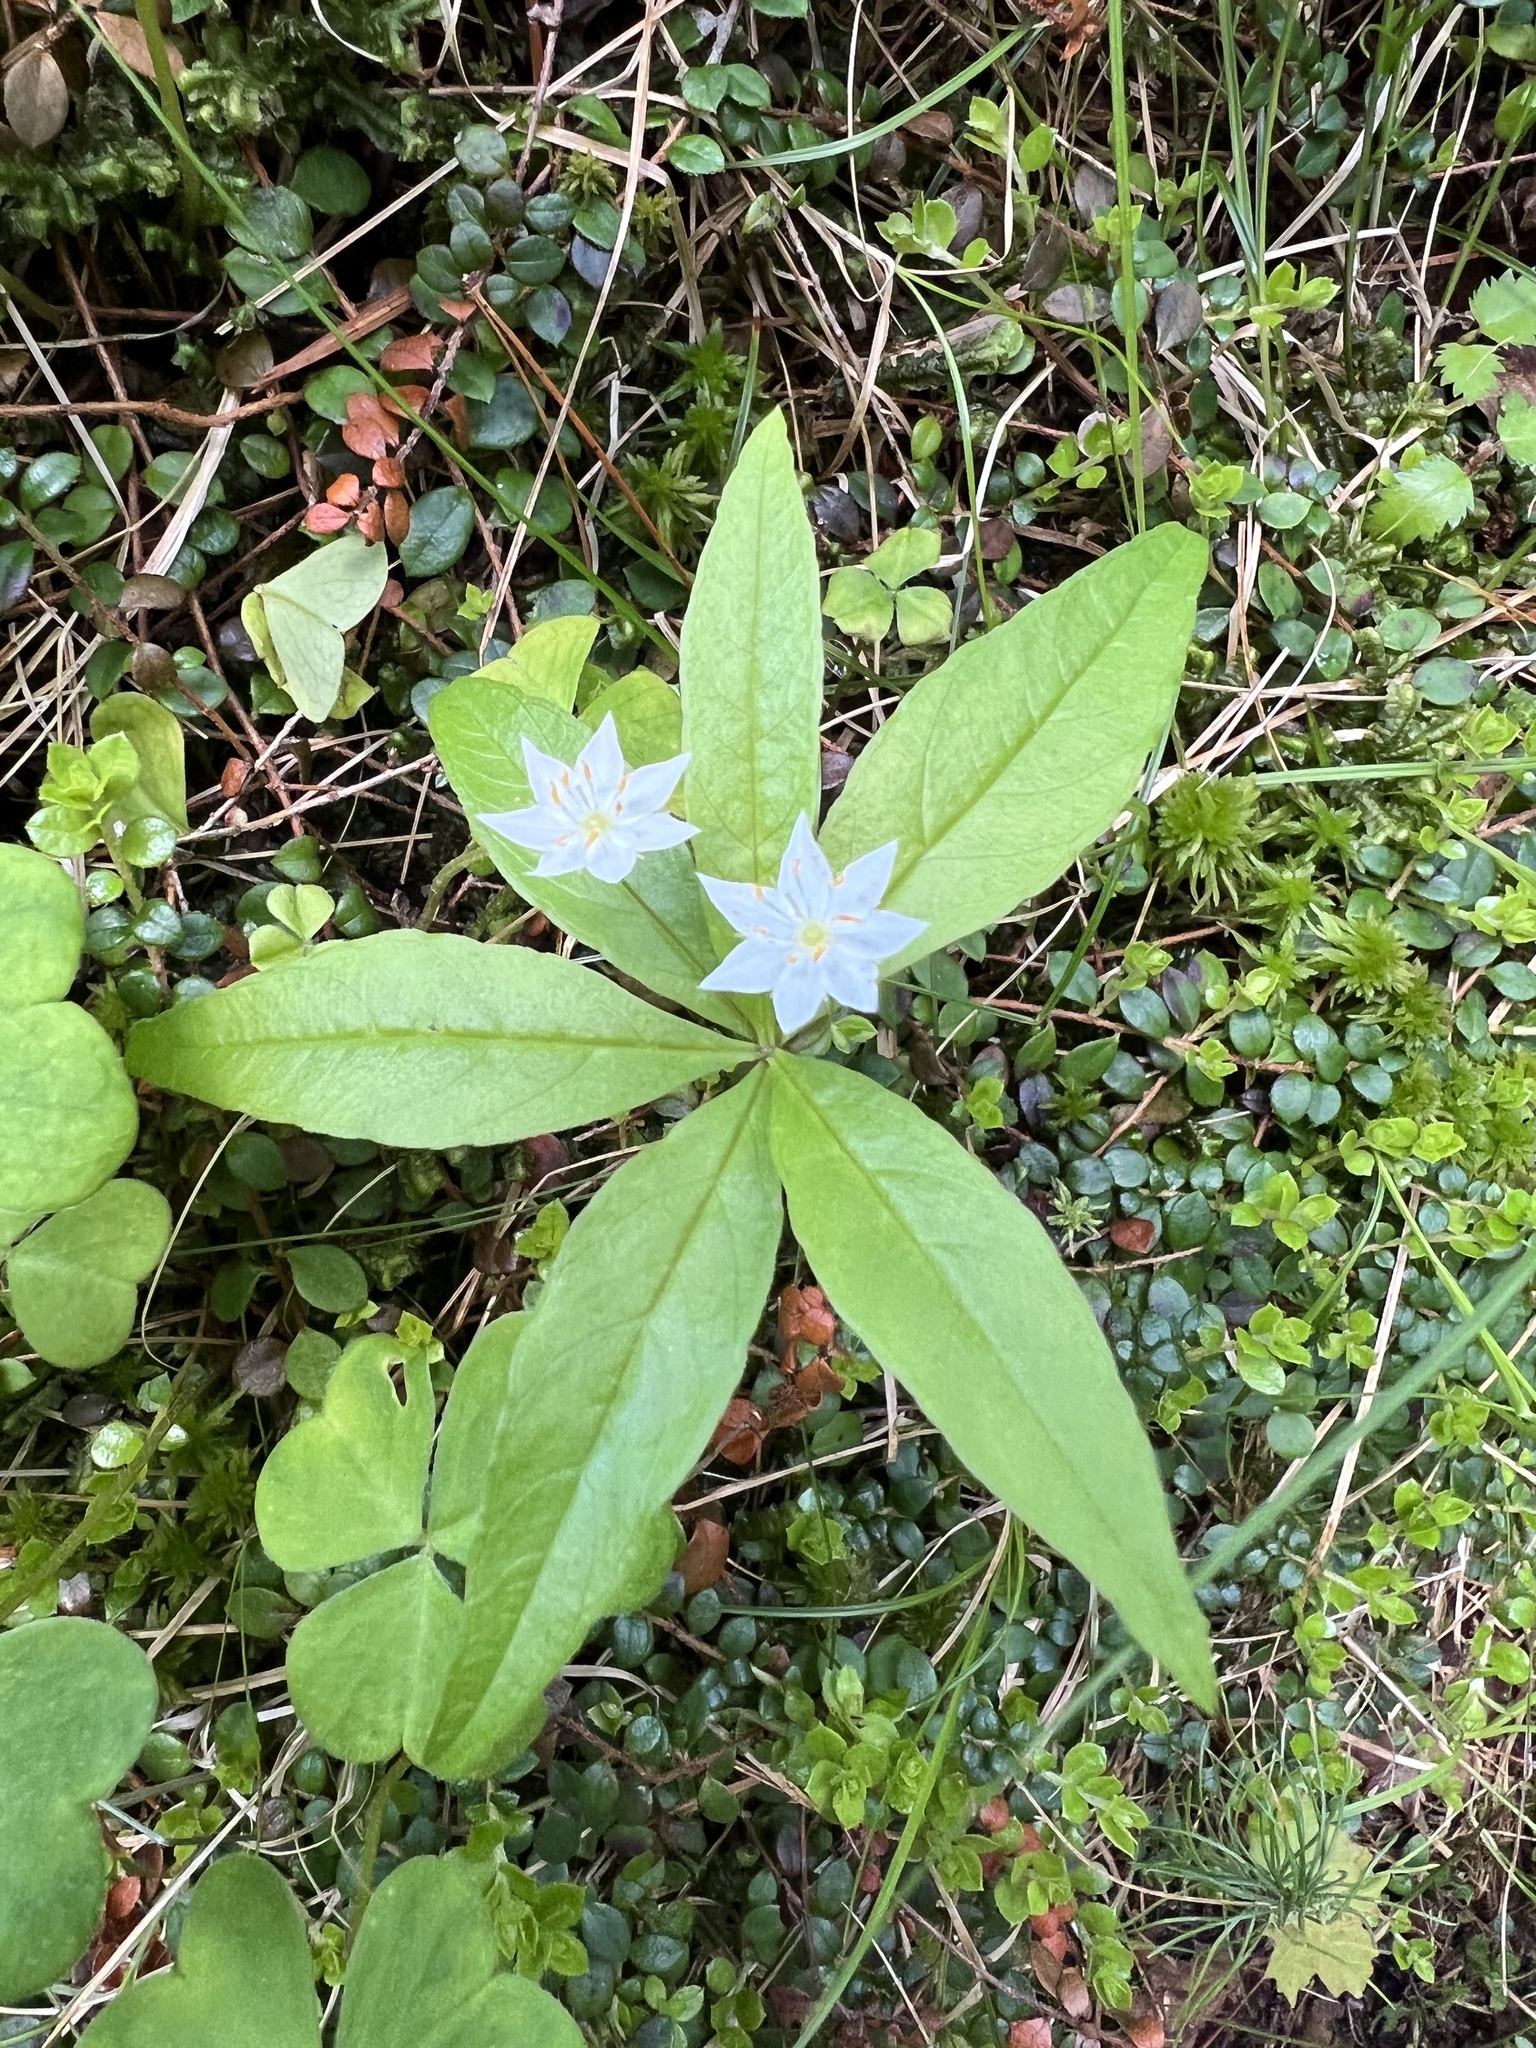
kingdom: Plantae
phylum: Tracheophyta
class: Magnoliopsida
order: Ericales
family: Primulaceae
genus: Lysimachia
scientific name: Lysimachia borealis
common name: American starflower
